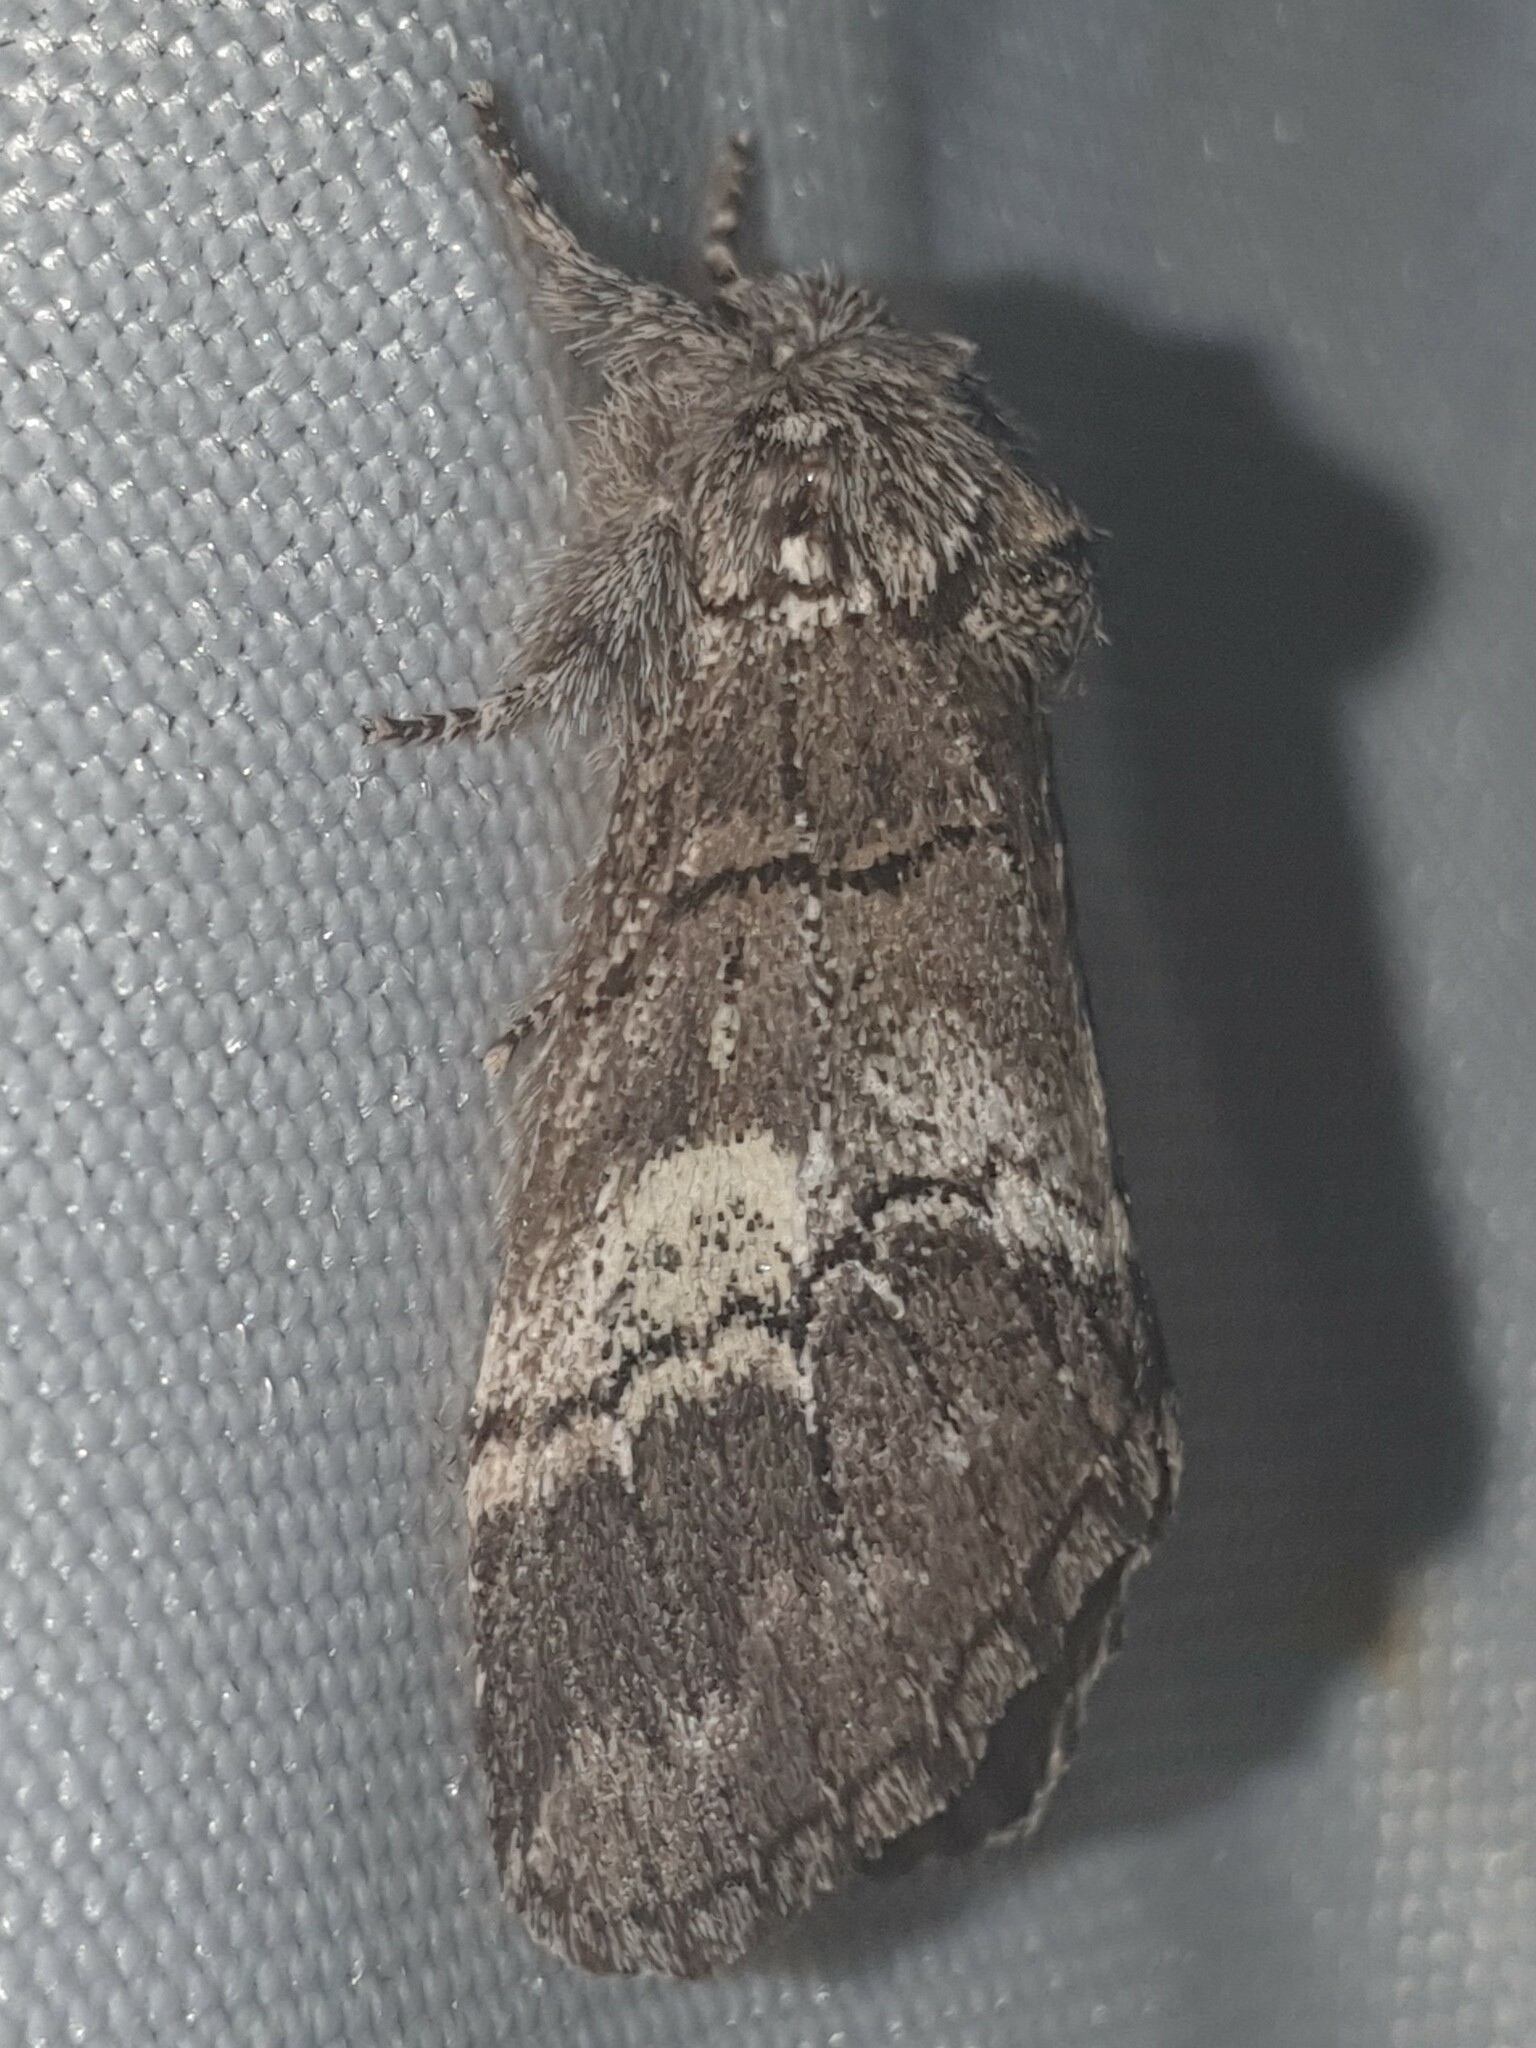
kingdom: Animalia
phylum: Arthropoda
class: Insecta
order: Lepidoptera
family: Notodontidae
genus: Drymonia
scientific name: Drymonia querna
